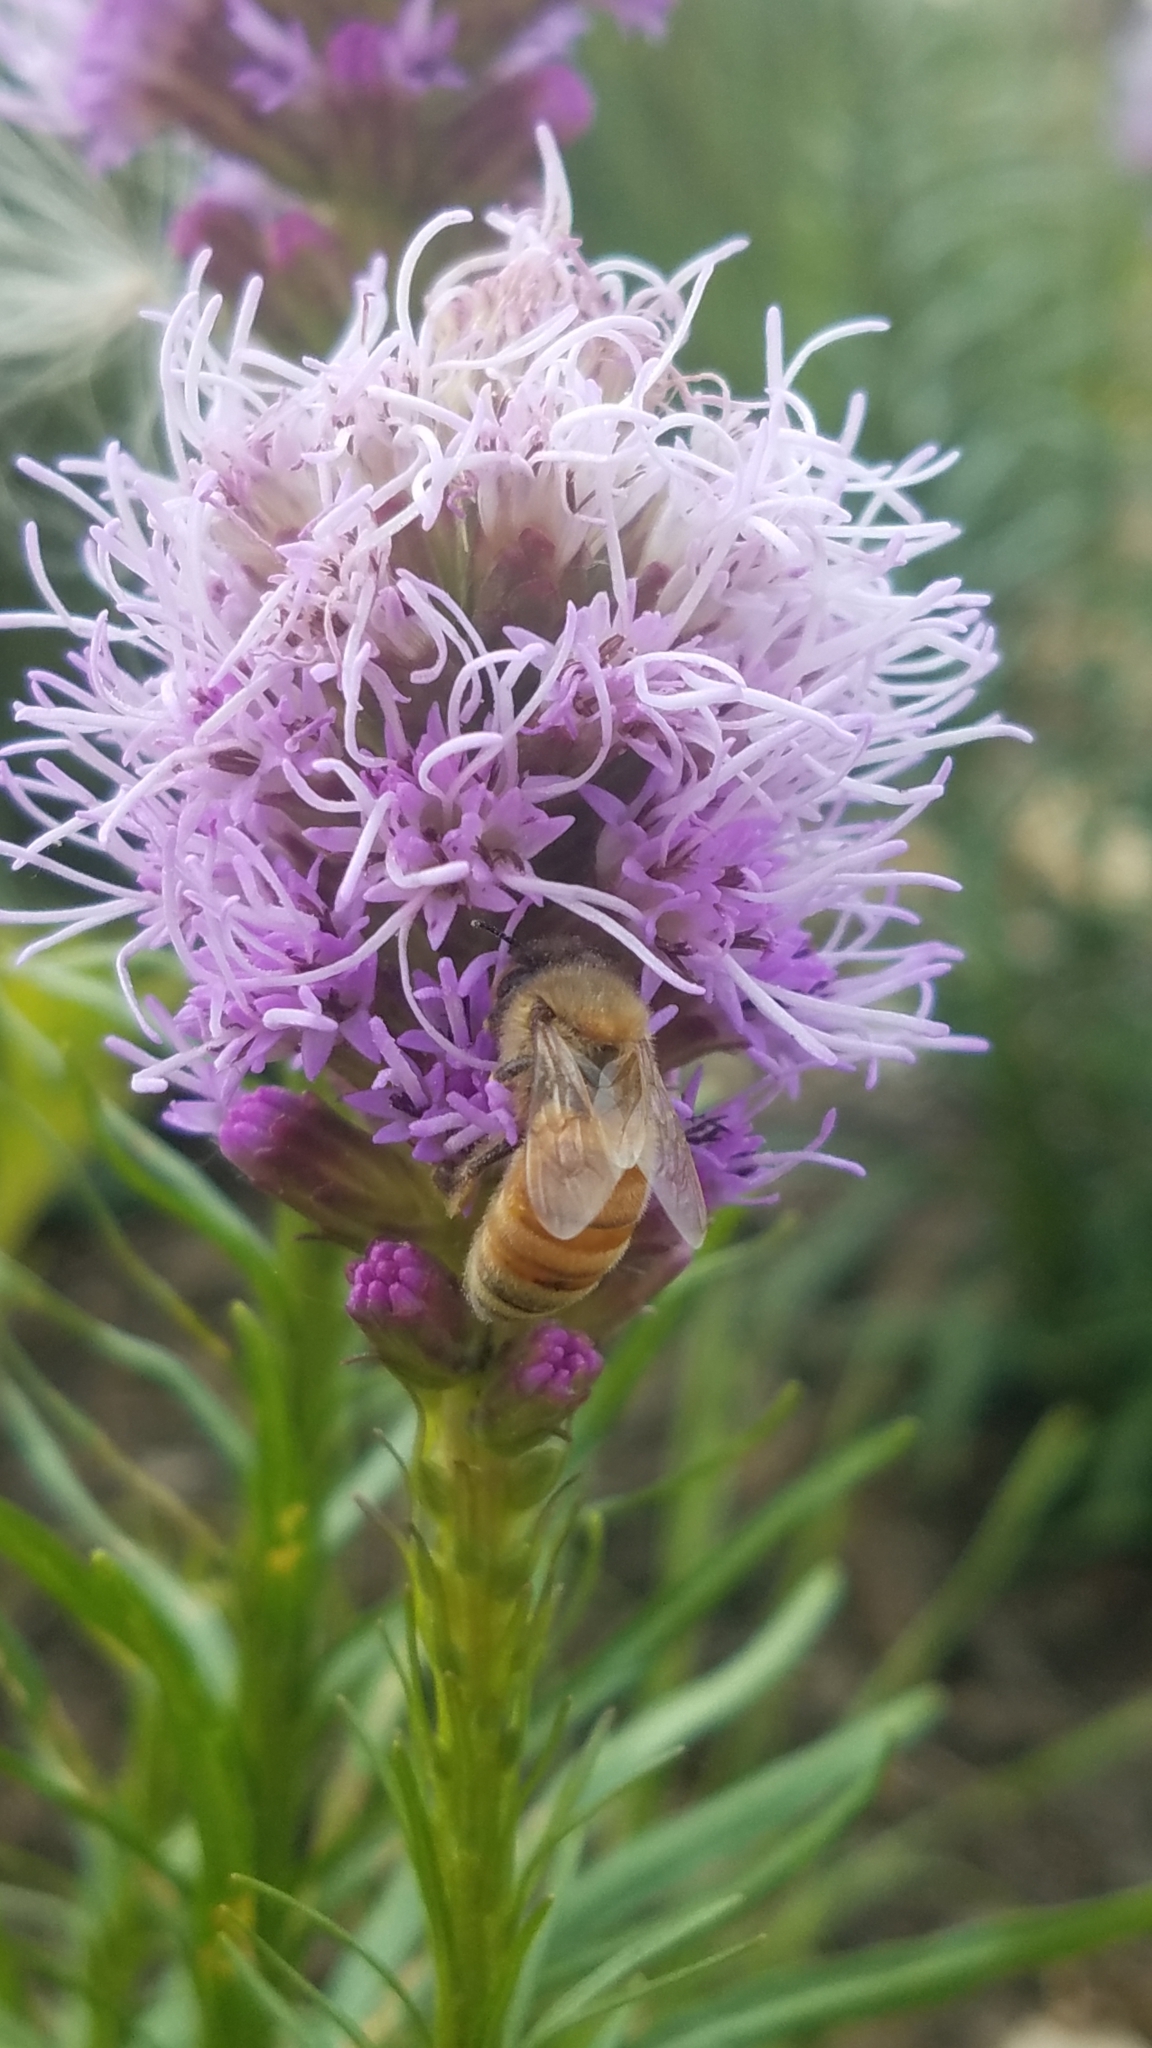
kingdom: Animalia
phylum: Arthropoda
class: Insecta
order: Hymenoptera
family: Apidae
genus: Apis
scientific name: Apis mellifera
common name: Honey bee
